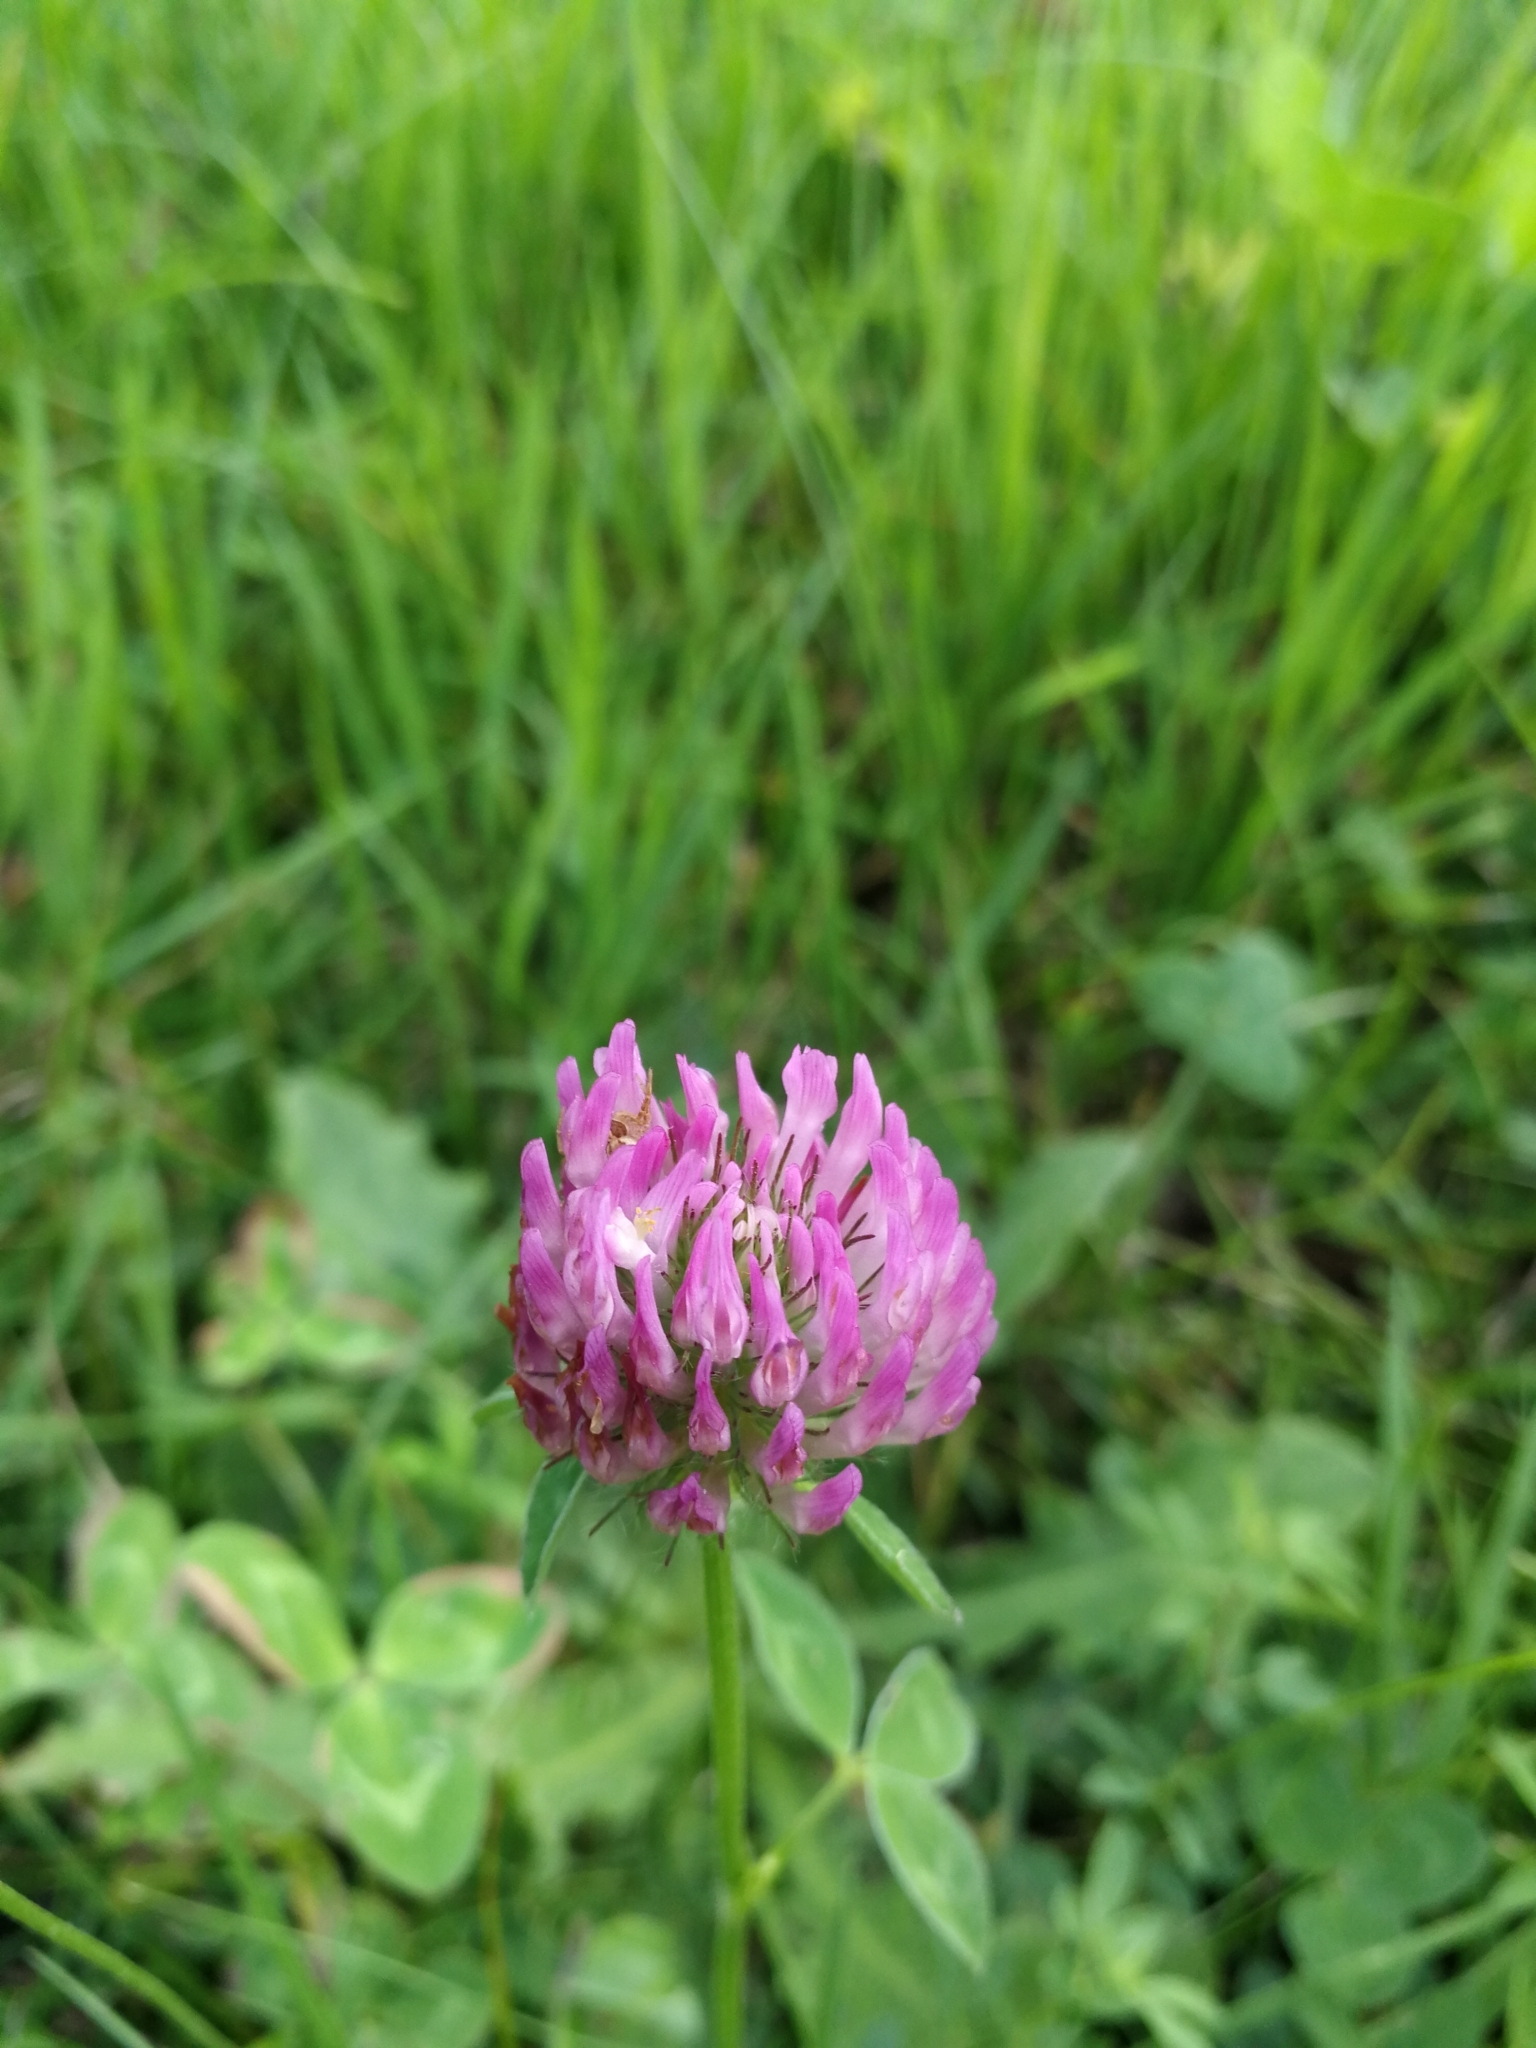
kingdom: Plantae
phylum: Tracheophyta
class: Magnoliopsida
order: Fabales
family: Fabaceae
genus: Trifolium
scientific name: Trifolium pratense
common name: Red clover
